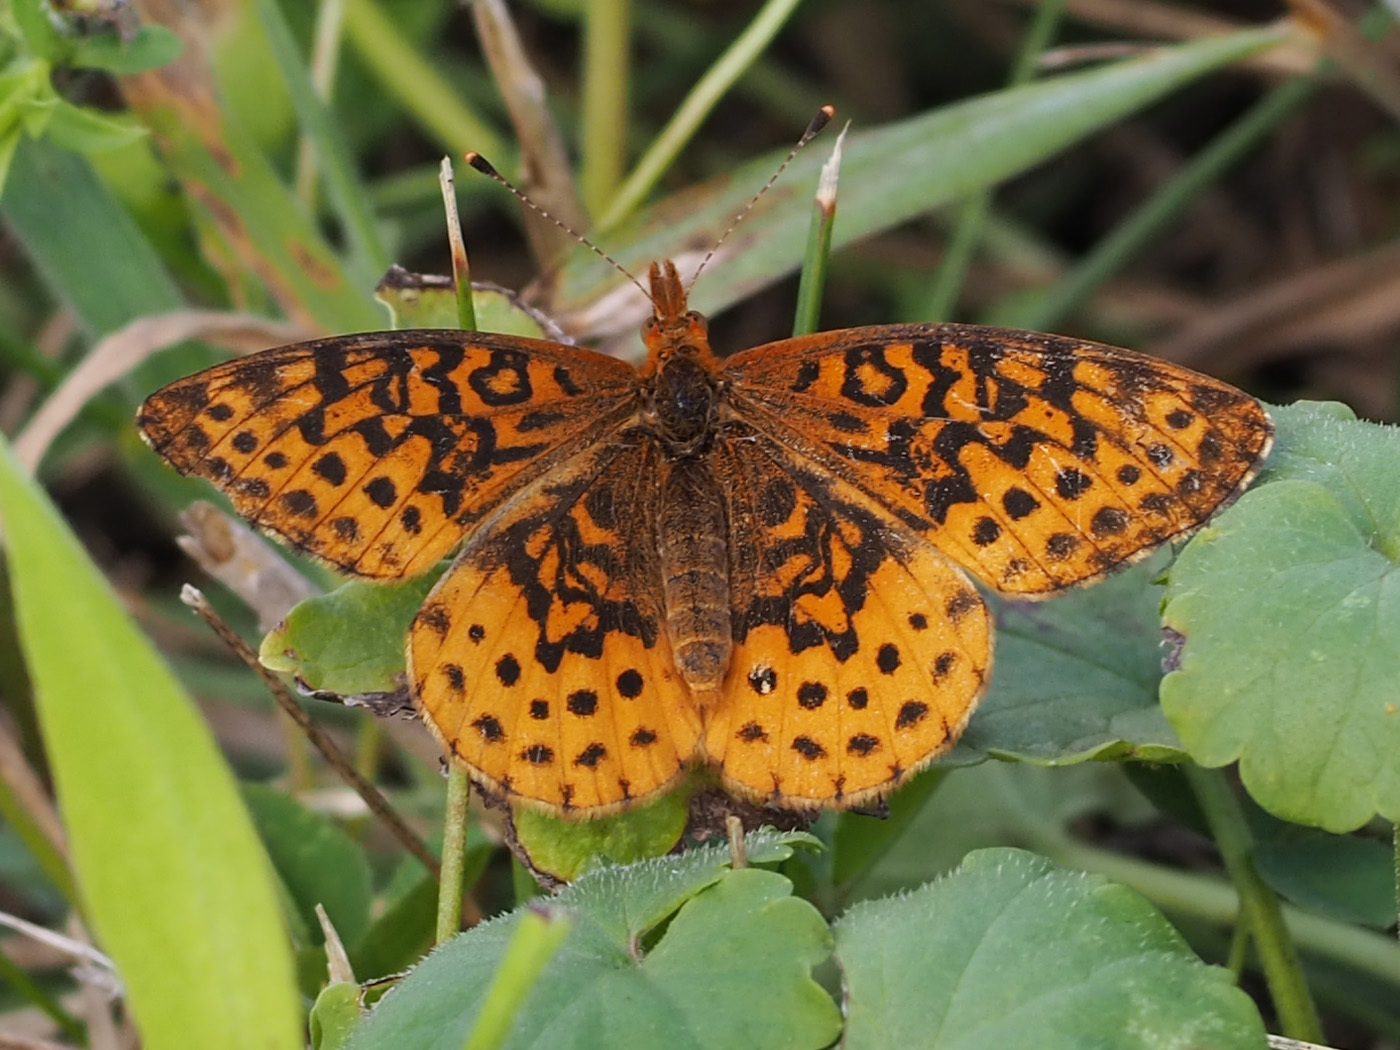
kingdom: Animalia
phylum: Arthropoda
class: Insecta
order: Lepidoptera
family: Nymphalidae
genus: Clossiana
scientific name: Clossiana toddi
